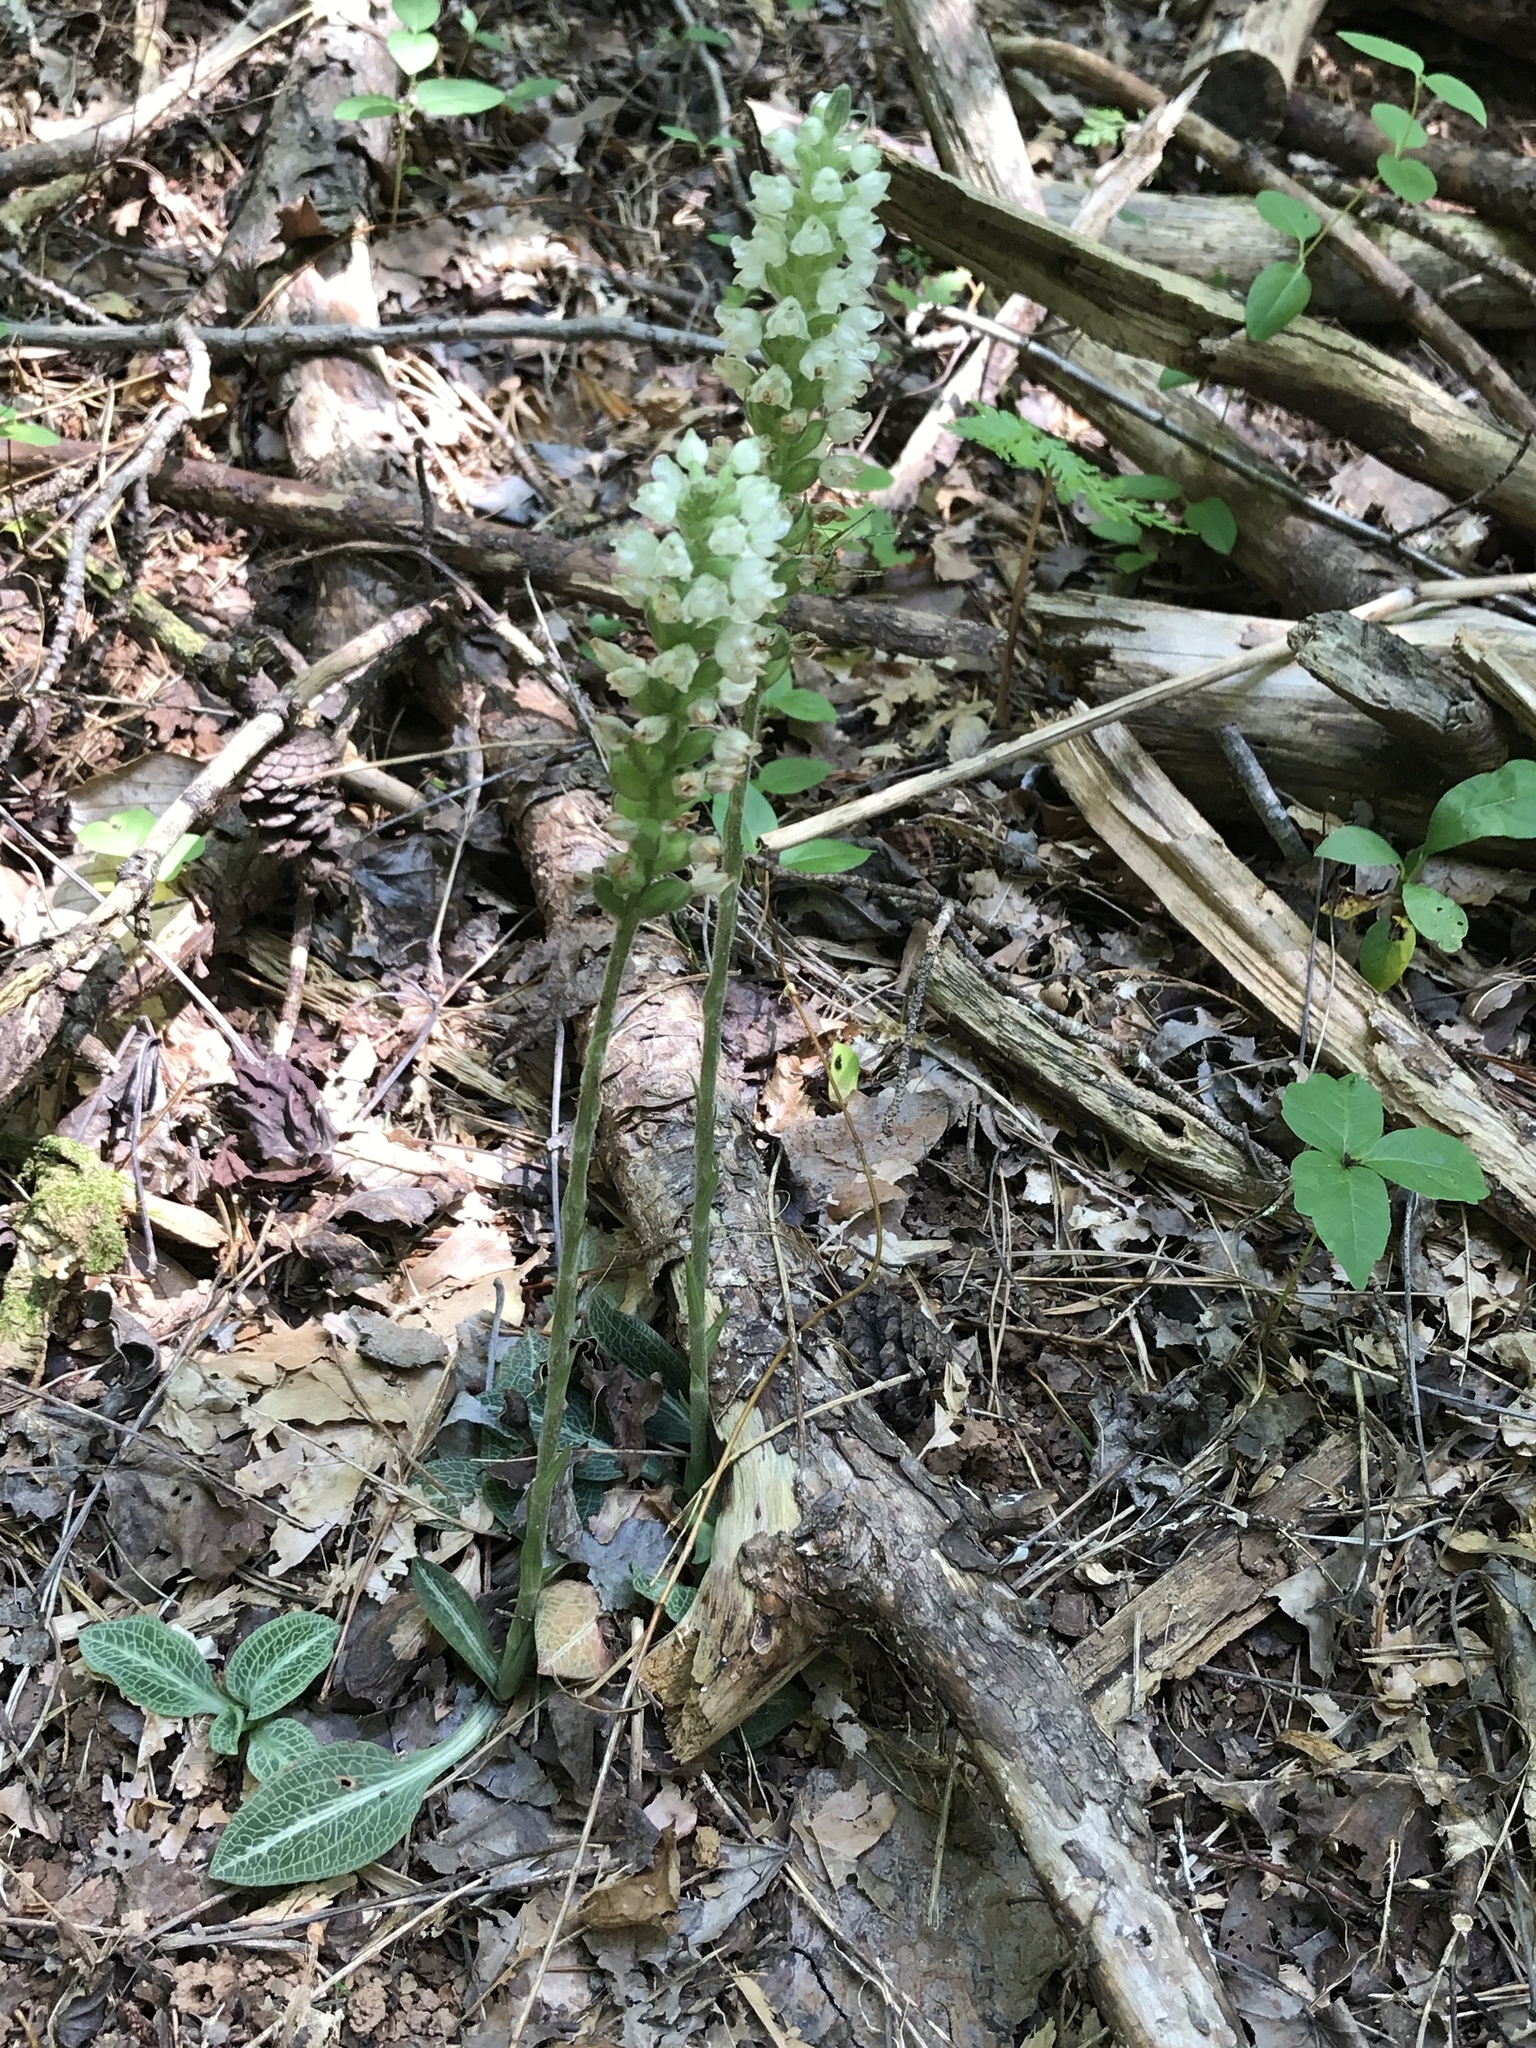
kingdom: Plantae
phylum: Tracheophyta
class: Liliopsida
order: Asparagales
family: Orchidaceae
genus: Goodyera
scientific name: Goodyera pubescens
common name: Downy rattlesnake-plantain
